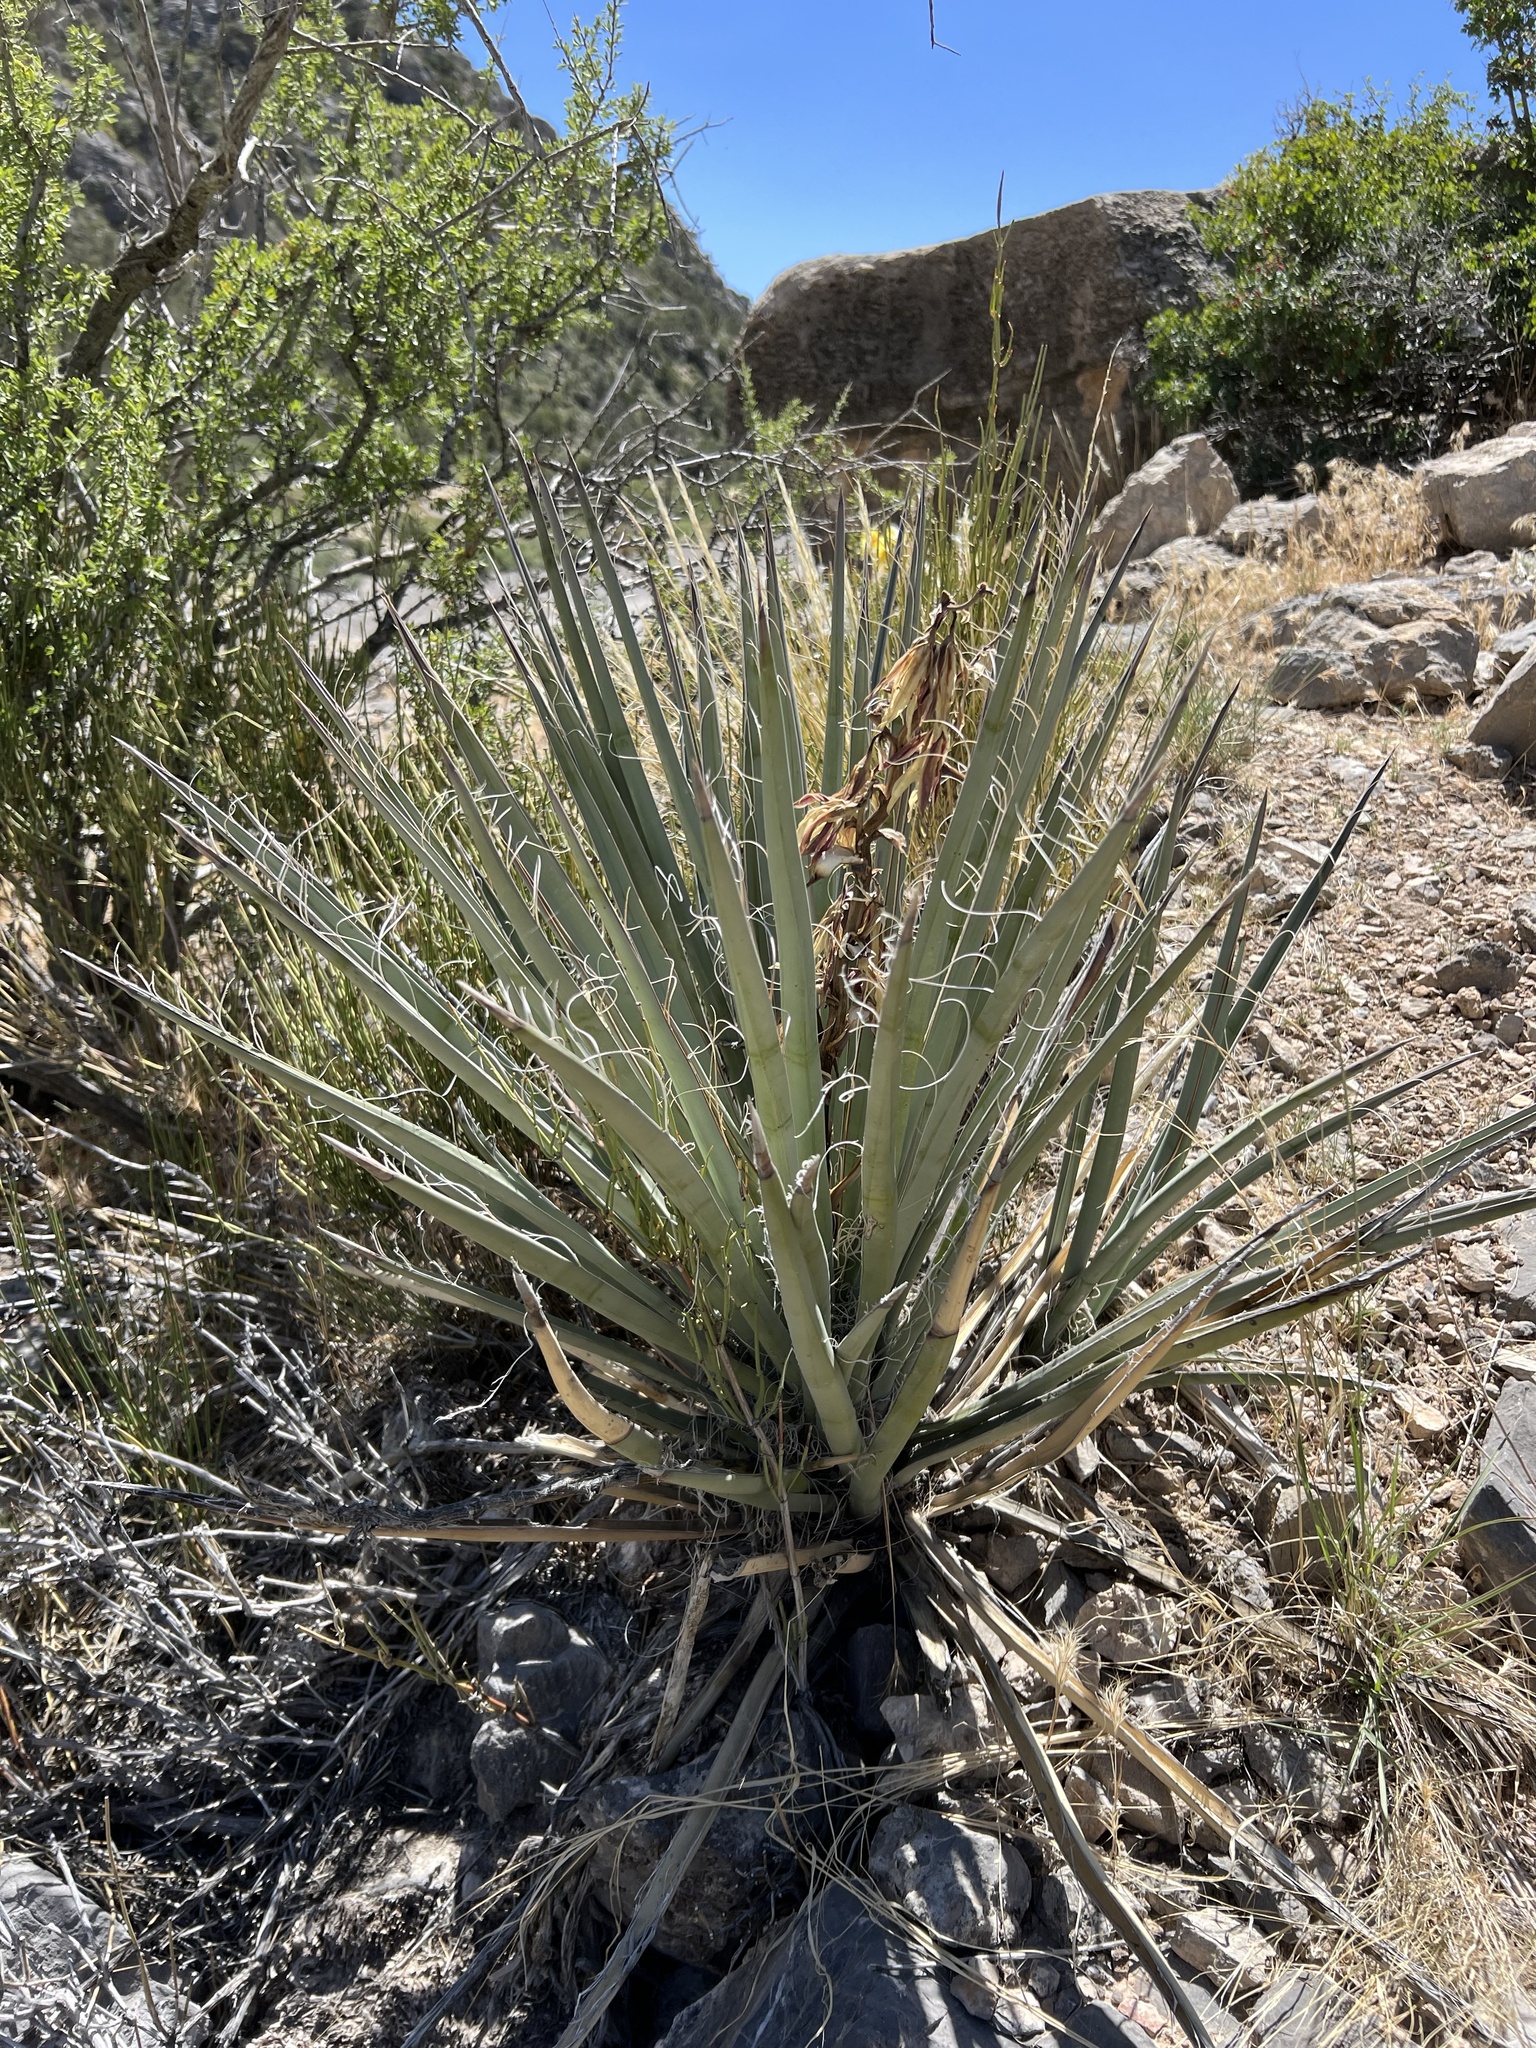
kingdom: Plantae
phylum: Tracheophyta
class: Liliopsida
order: Asparagales
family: Asparagaceae
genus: Yucca
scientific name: Yucca baccata
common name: Banana yucca
